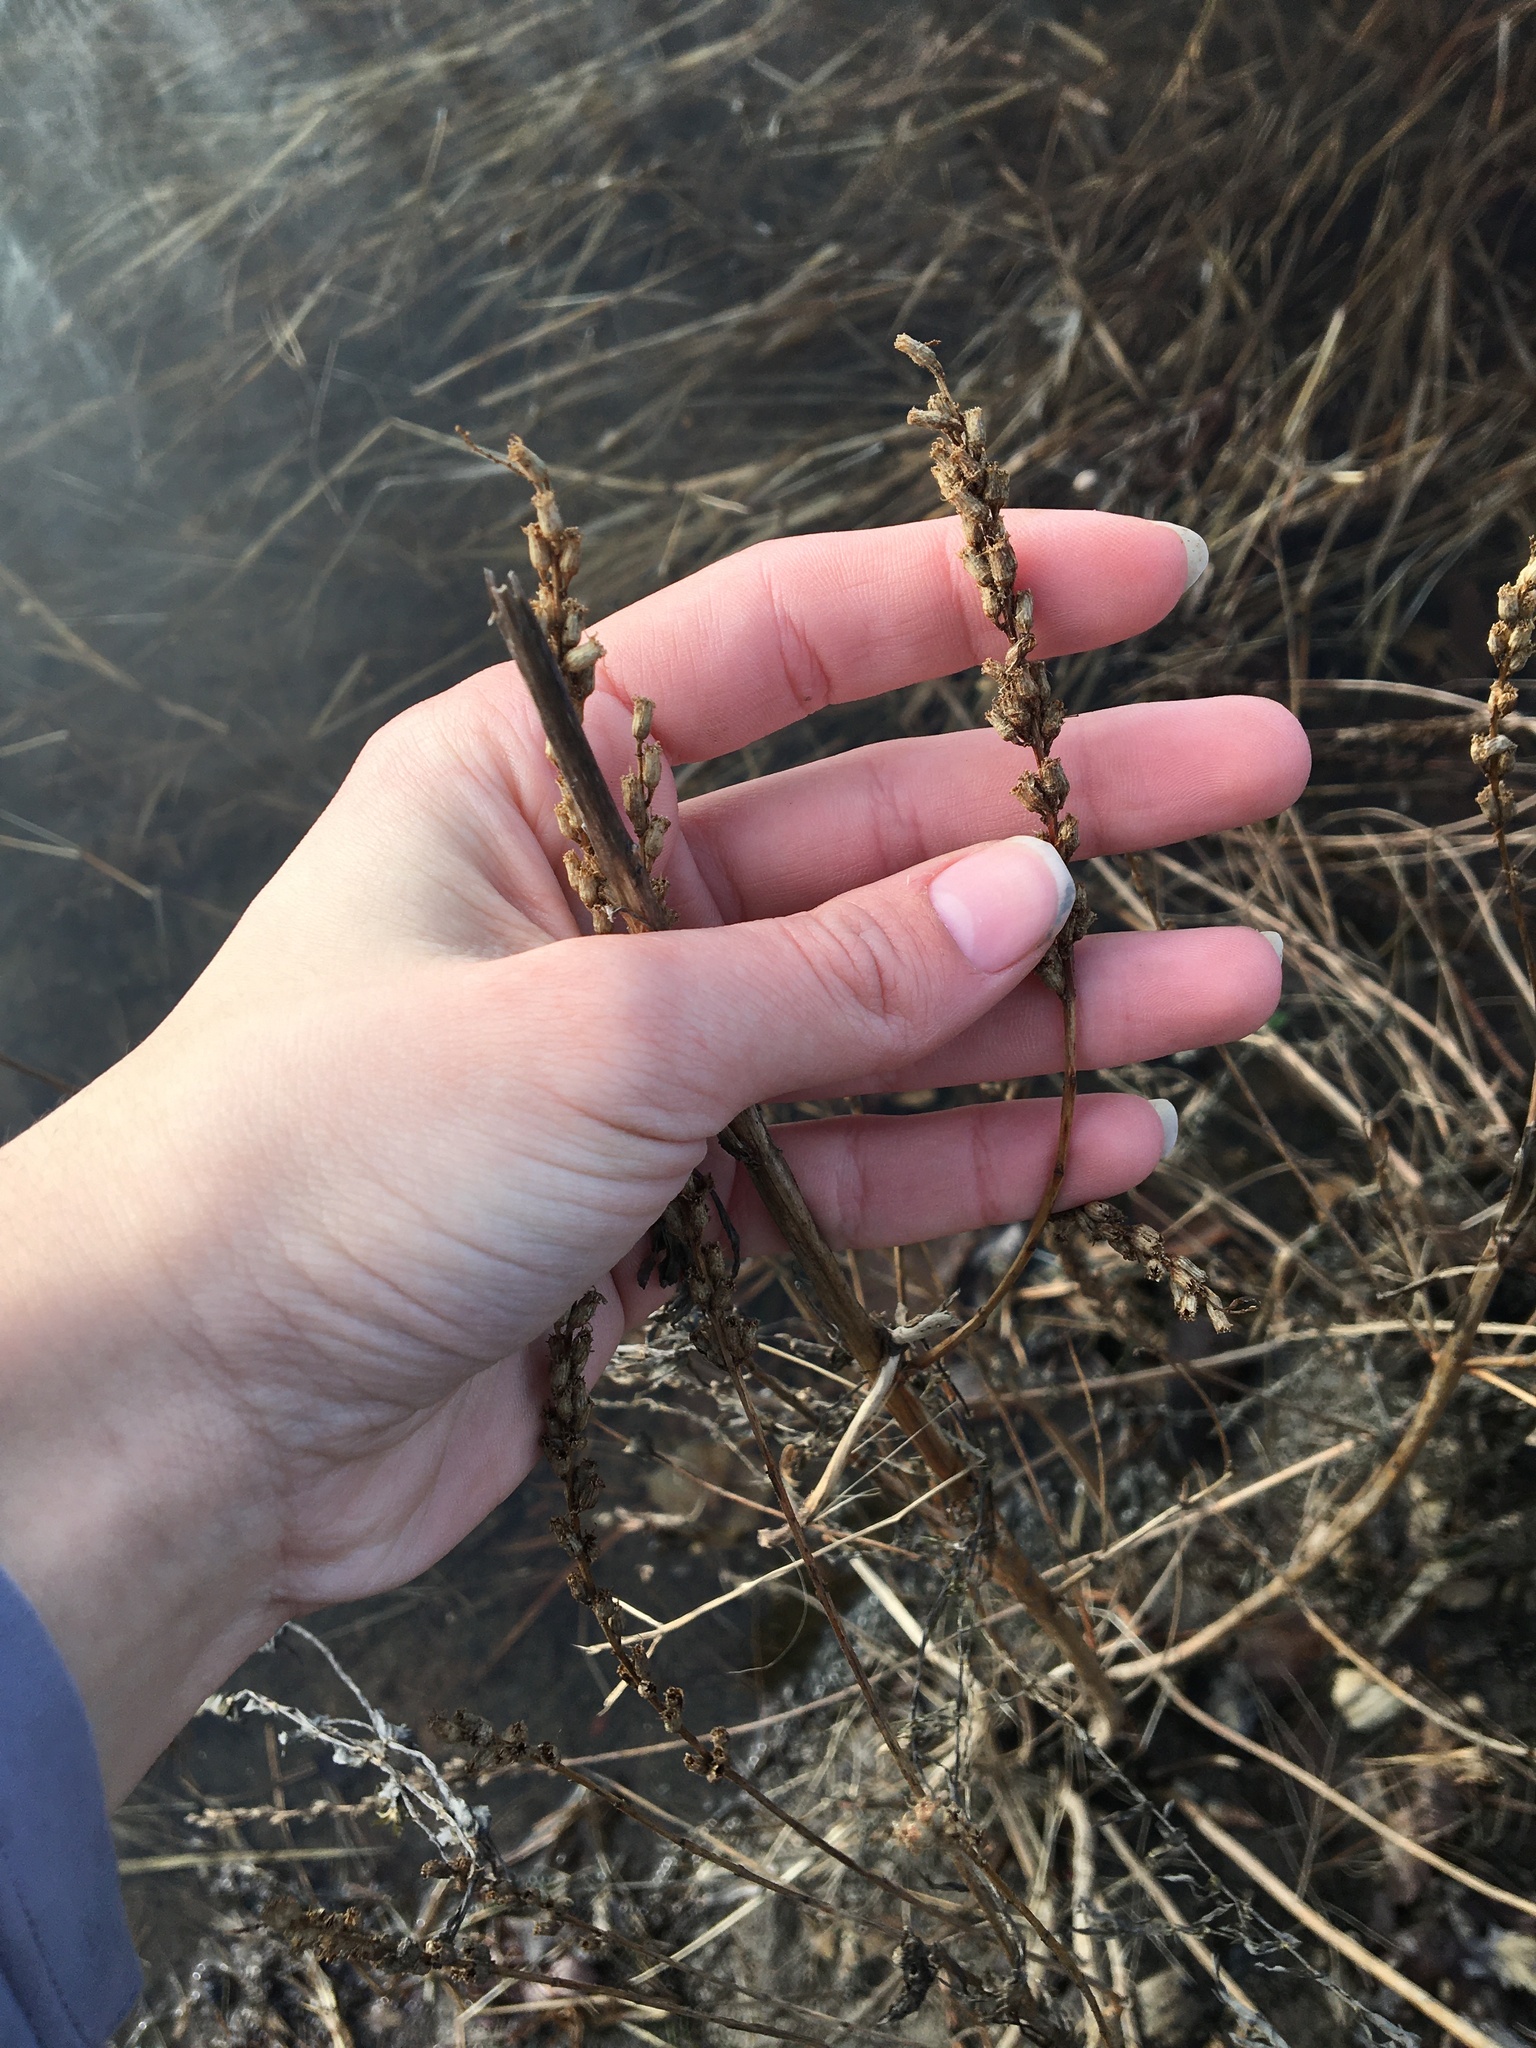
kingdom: Plantae
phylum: Tracheophyta
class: Magnoliopsida
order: Myrtales
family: Lythraceae
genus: Lythrum
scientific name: Lythrum salicaria
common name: Purple loosestrife
